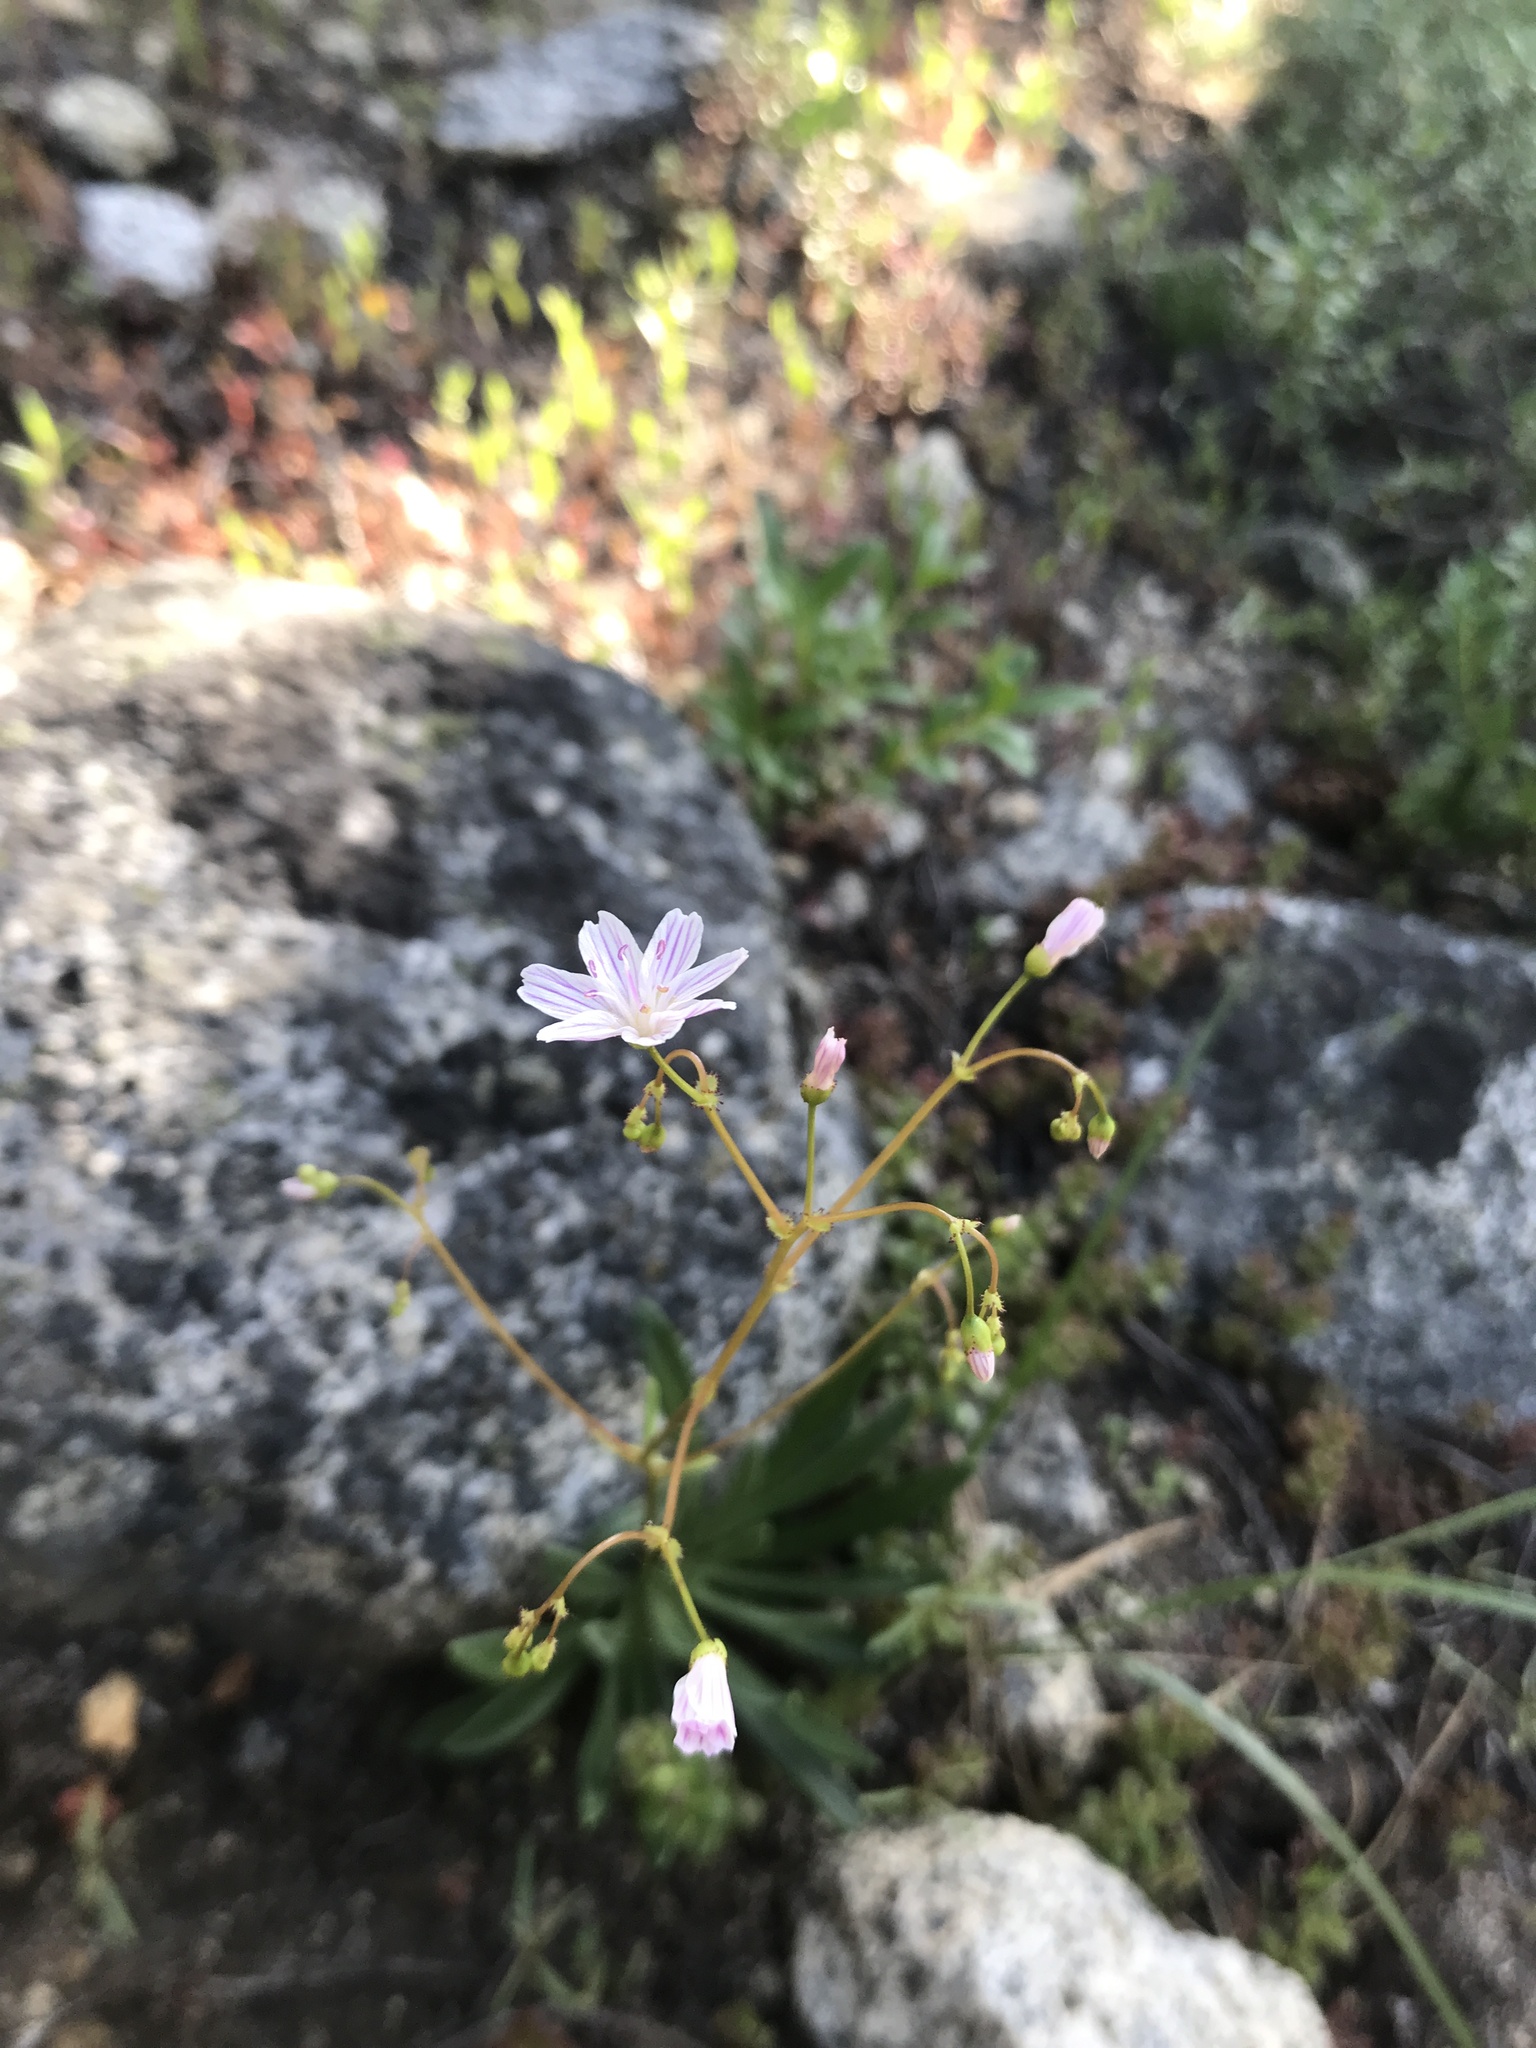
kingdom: Plantae
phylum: Tracheophyta
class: Magnoliopsida
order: Caryophyllales
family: Montiaceae
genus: Lewisia
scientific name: Lewisia columbiana
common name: Columbia lewisia
